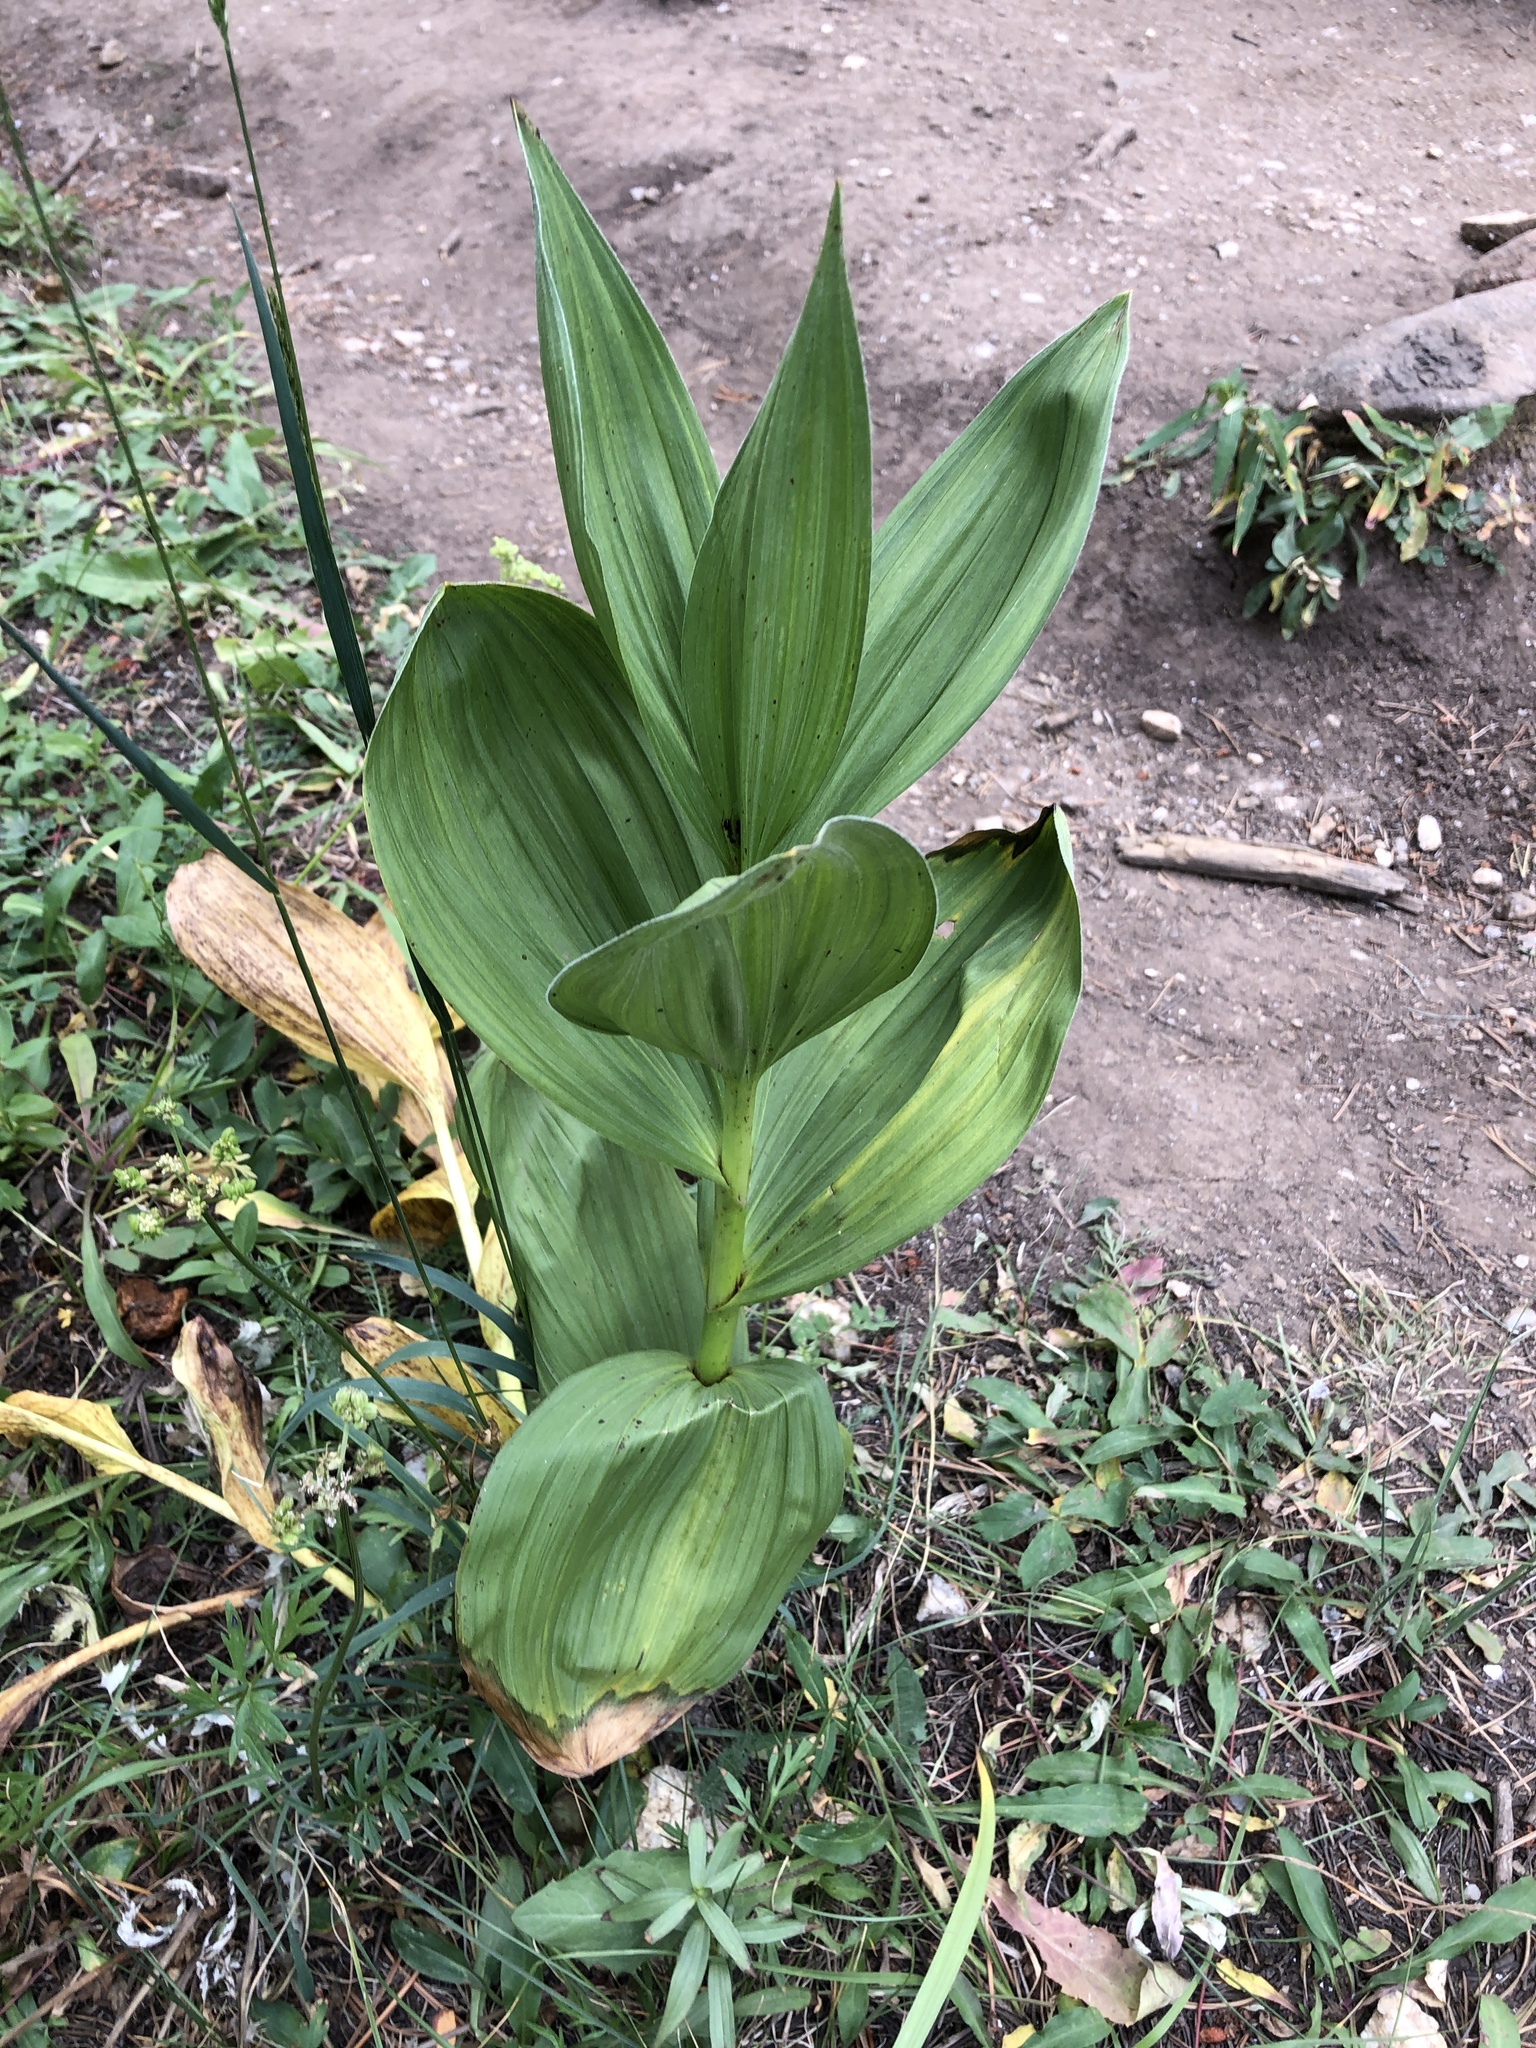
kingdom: Plantae
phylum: Tracheophyta
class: Liliopsida
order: Liliales
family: Melanthiaceae
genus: Veratrum
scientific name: Veratrum californicum
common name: California veratrum
